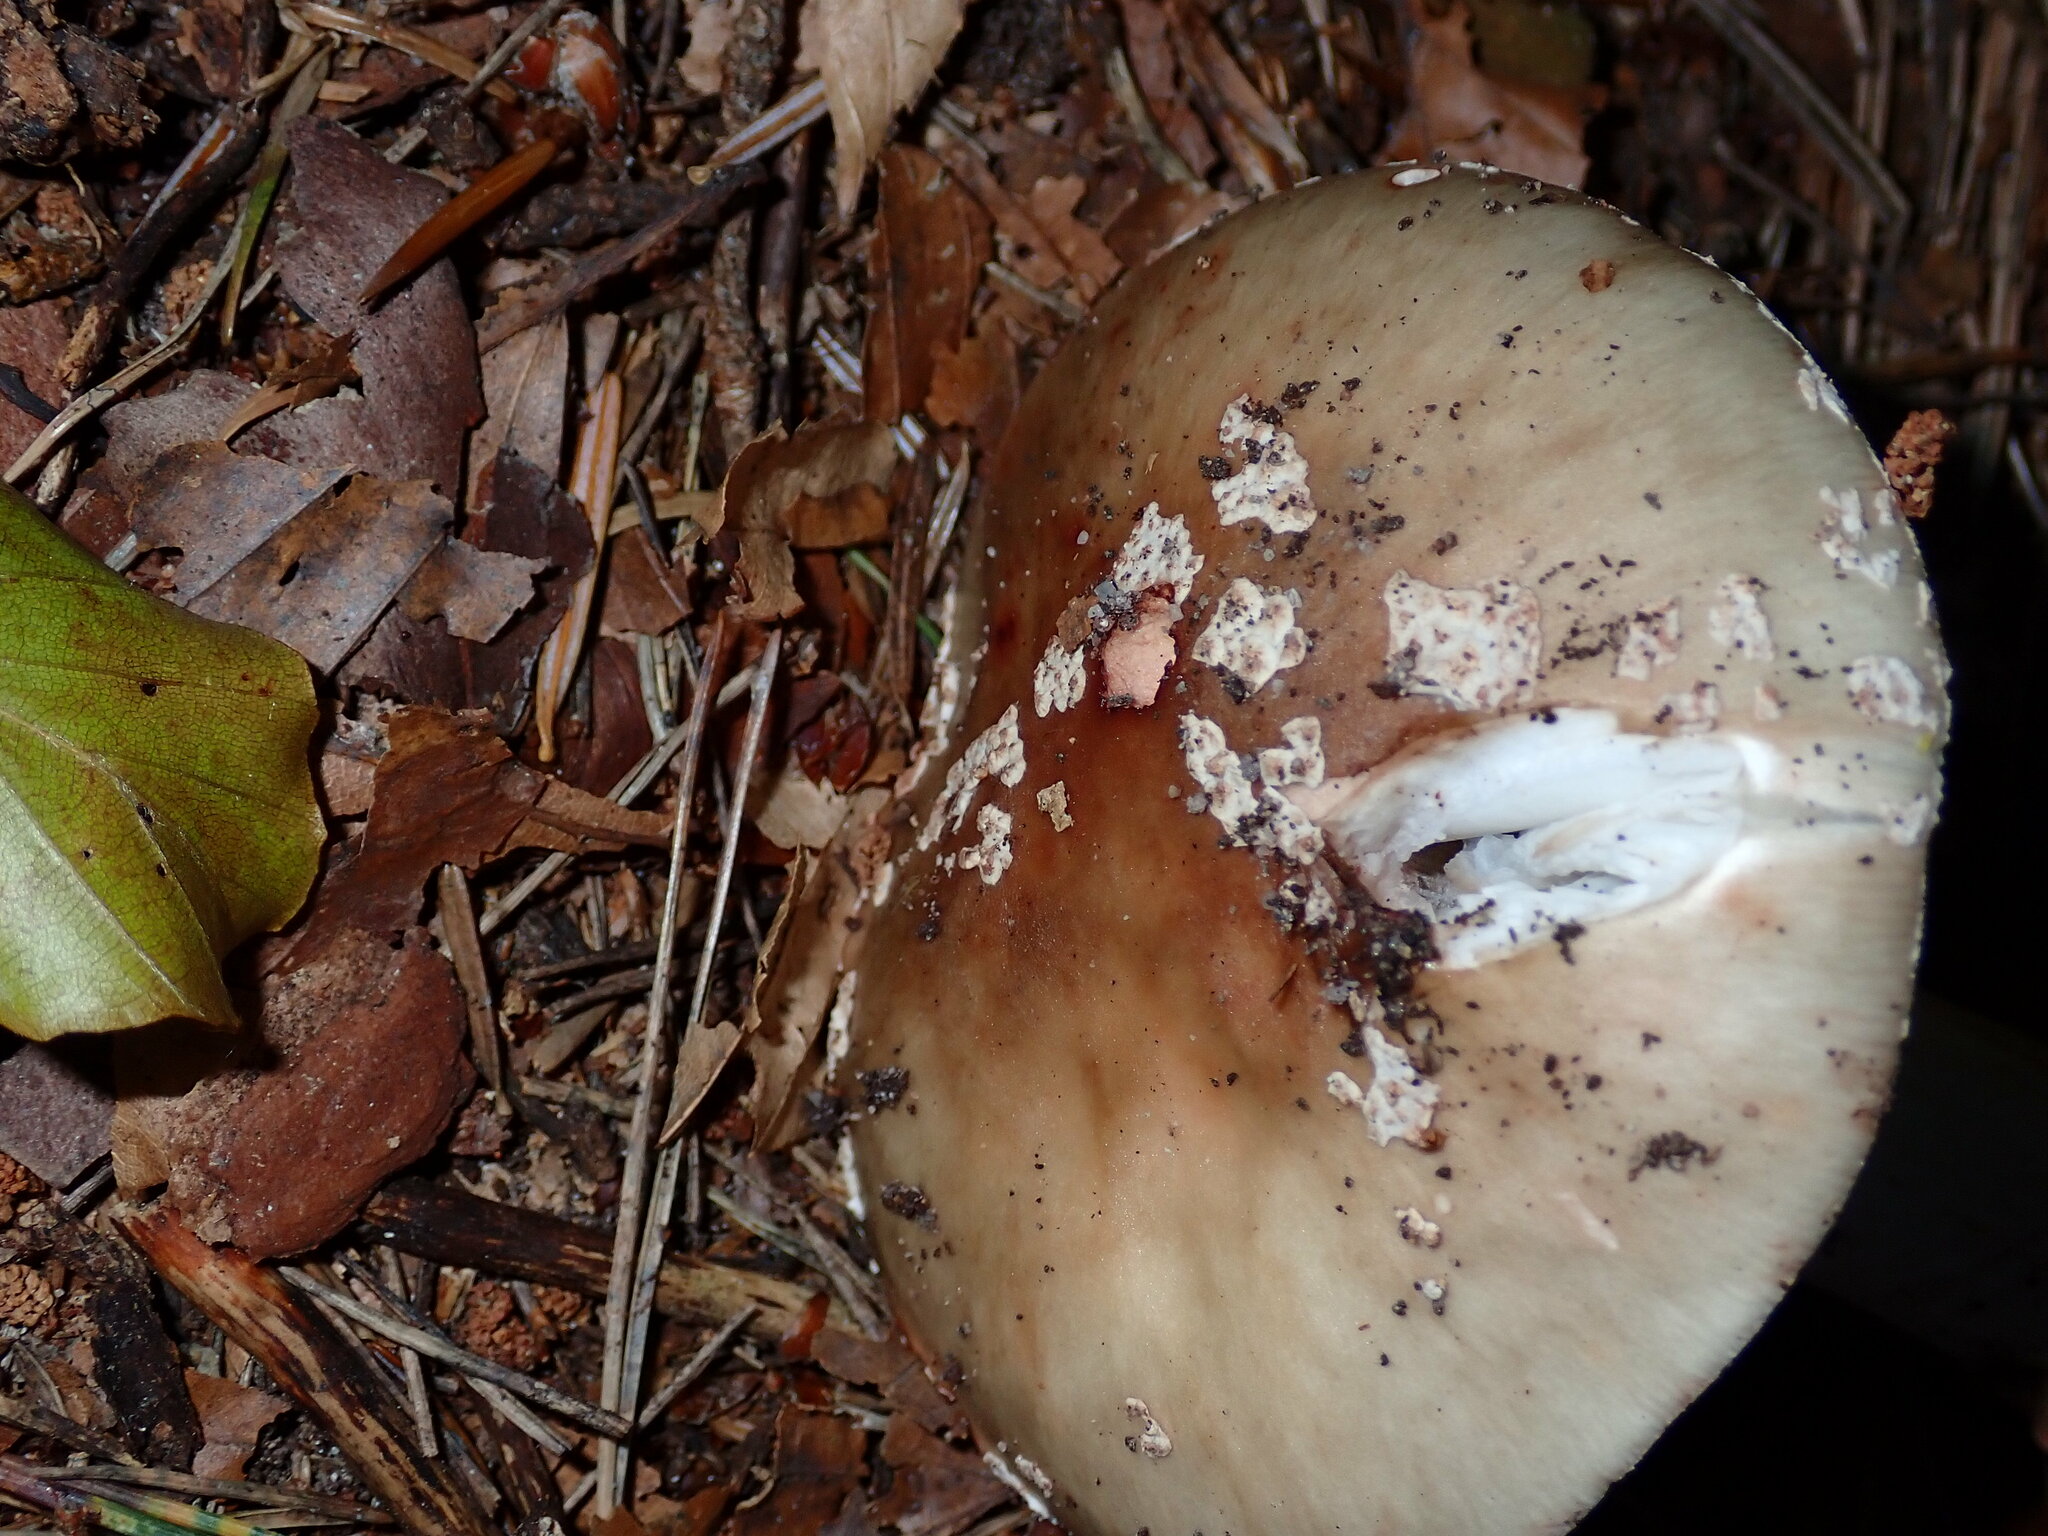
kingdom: Fungi
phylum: Basidiomycota
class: Agaricomycetes
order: Agaricales
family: Amanitaceae
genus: Amanita
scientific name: Amanita rubescens
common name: Blusher
